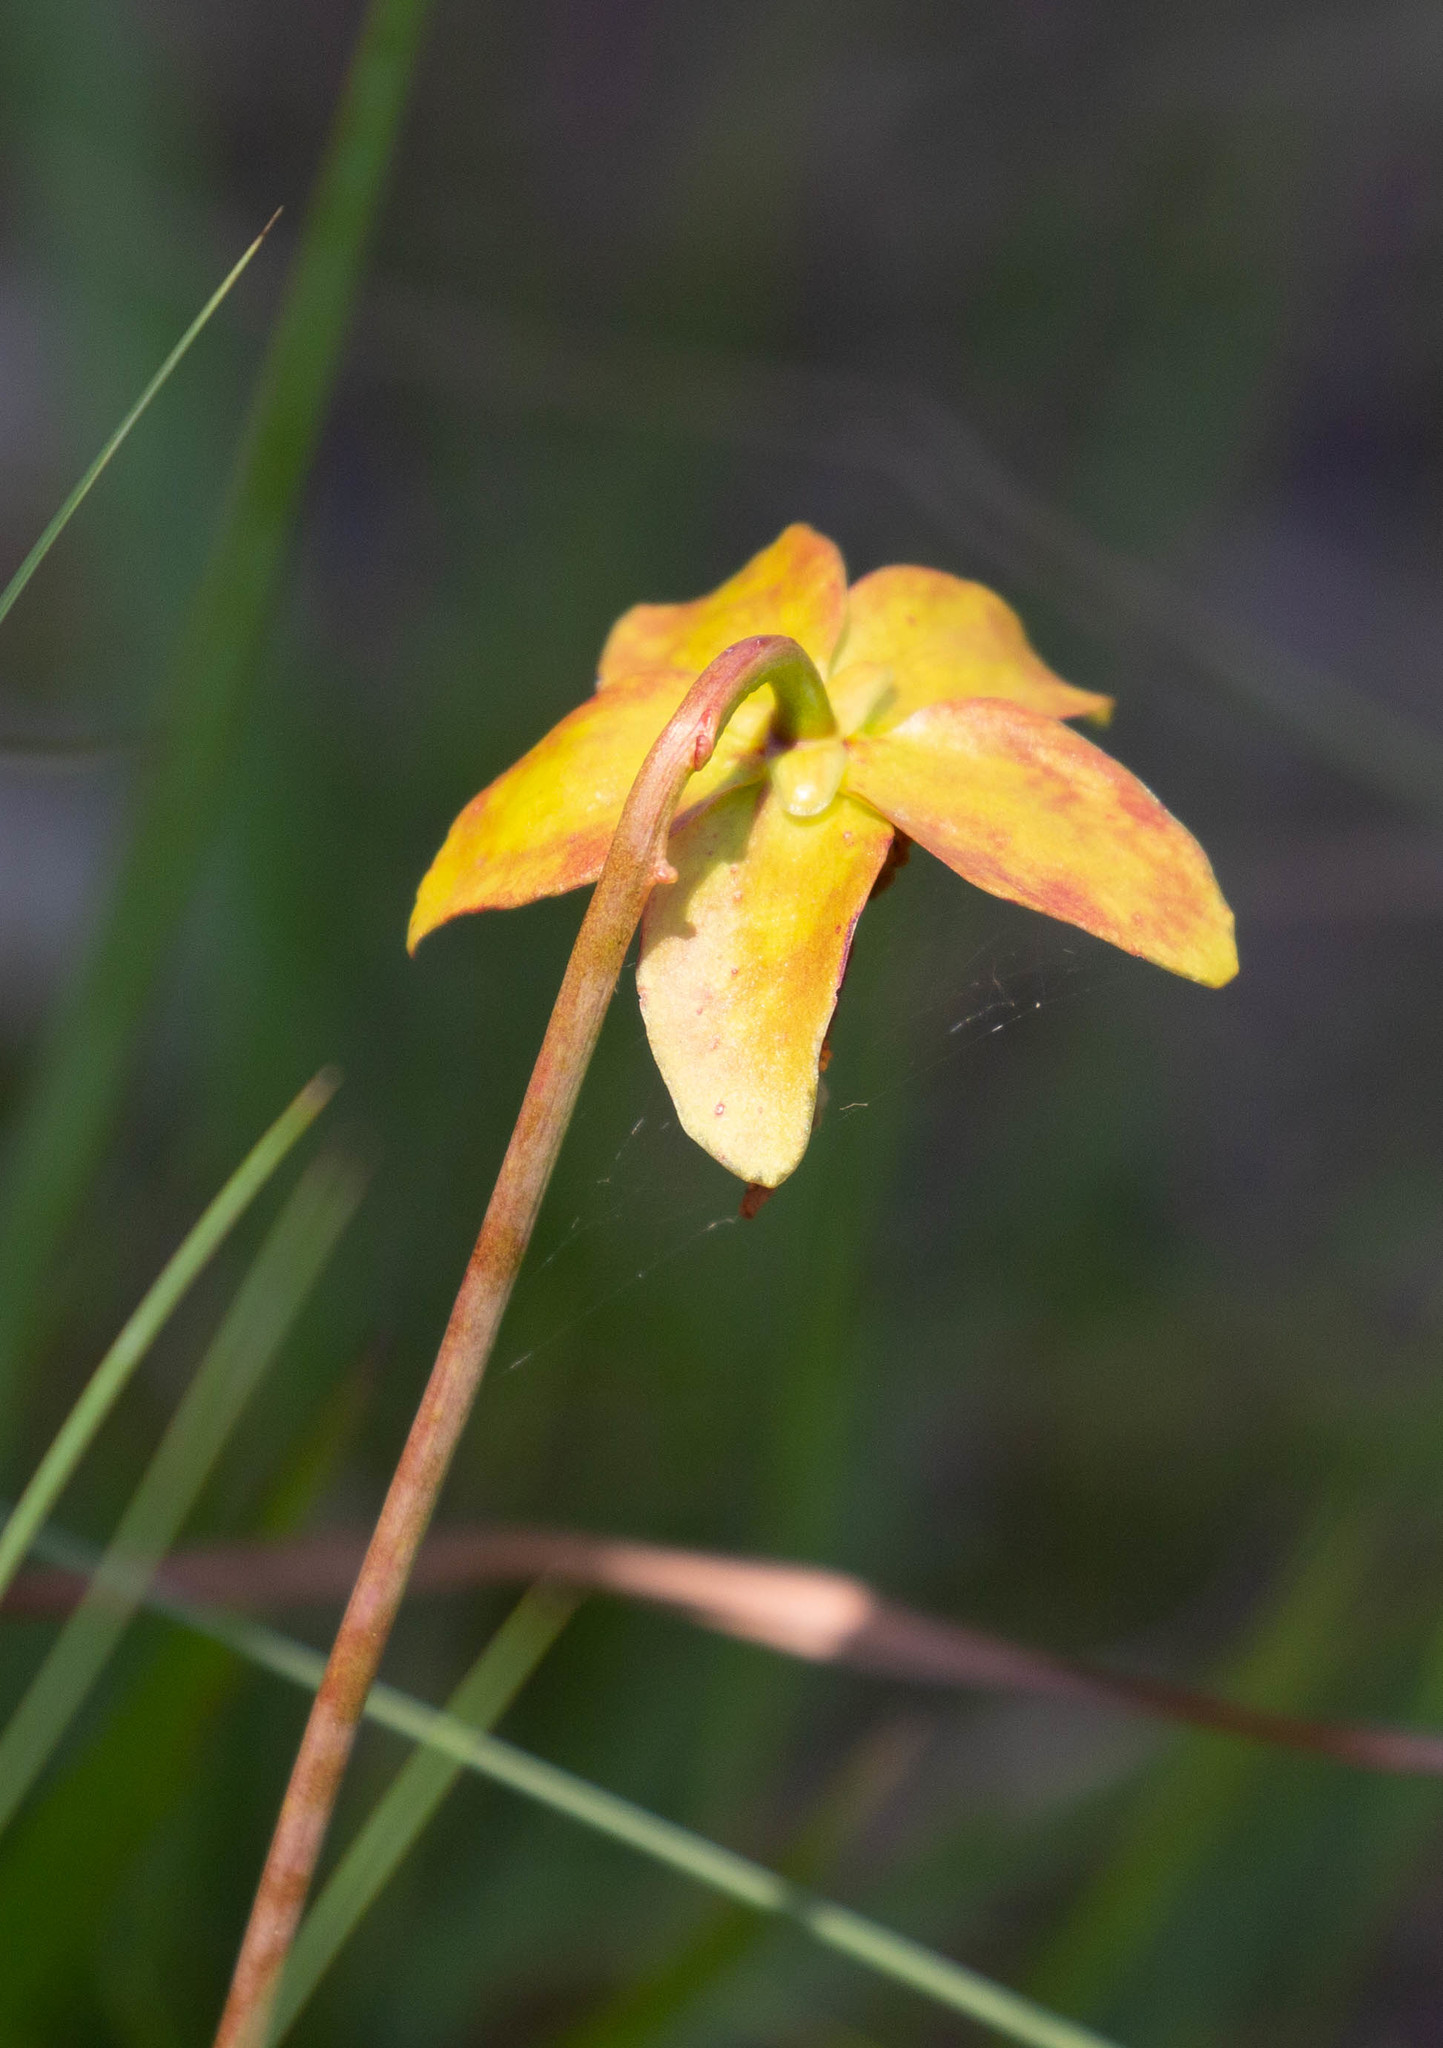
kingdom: Plantae
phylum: Tracheophyta
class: Magnoliopsida
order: Ericales
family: Sarraceniaceae
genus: Sarracenia
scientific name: Sarracenia psittacina
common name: Parrot pitcherplant
